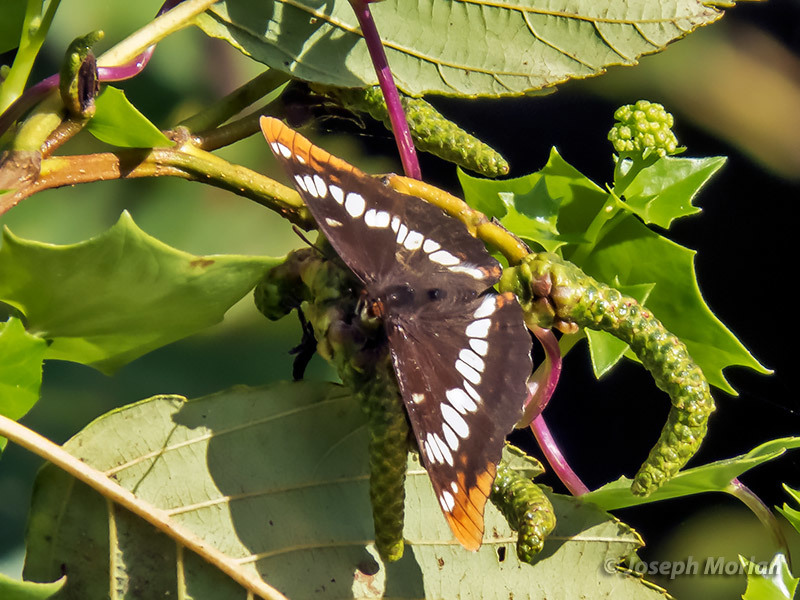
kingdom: Animalia
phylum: Arthropoda
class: Insecta
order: Lepidoptera
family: Nymphalidae
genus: Limenitis
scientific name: Limenitis lorquini
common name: Lorquin's admiral
